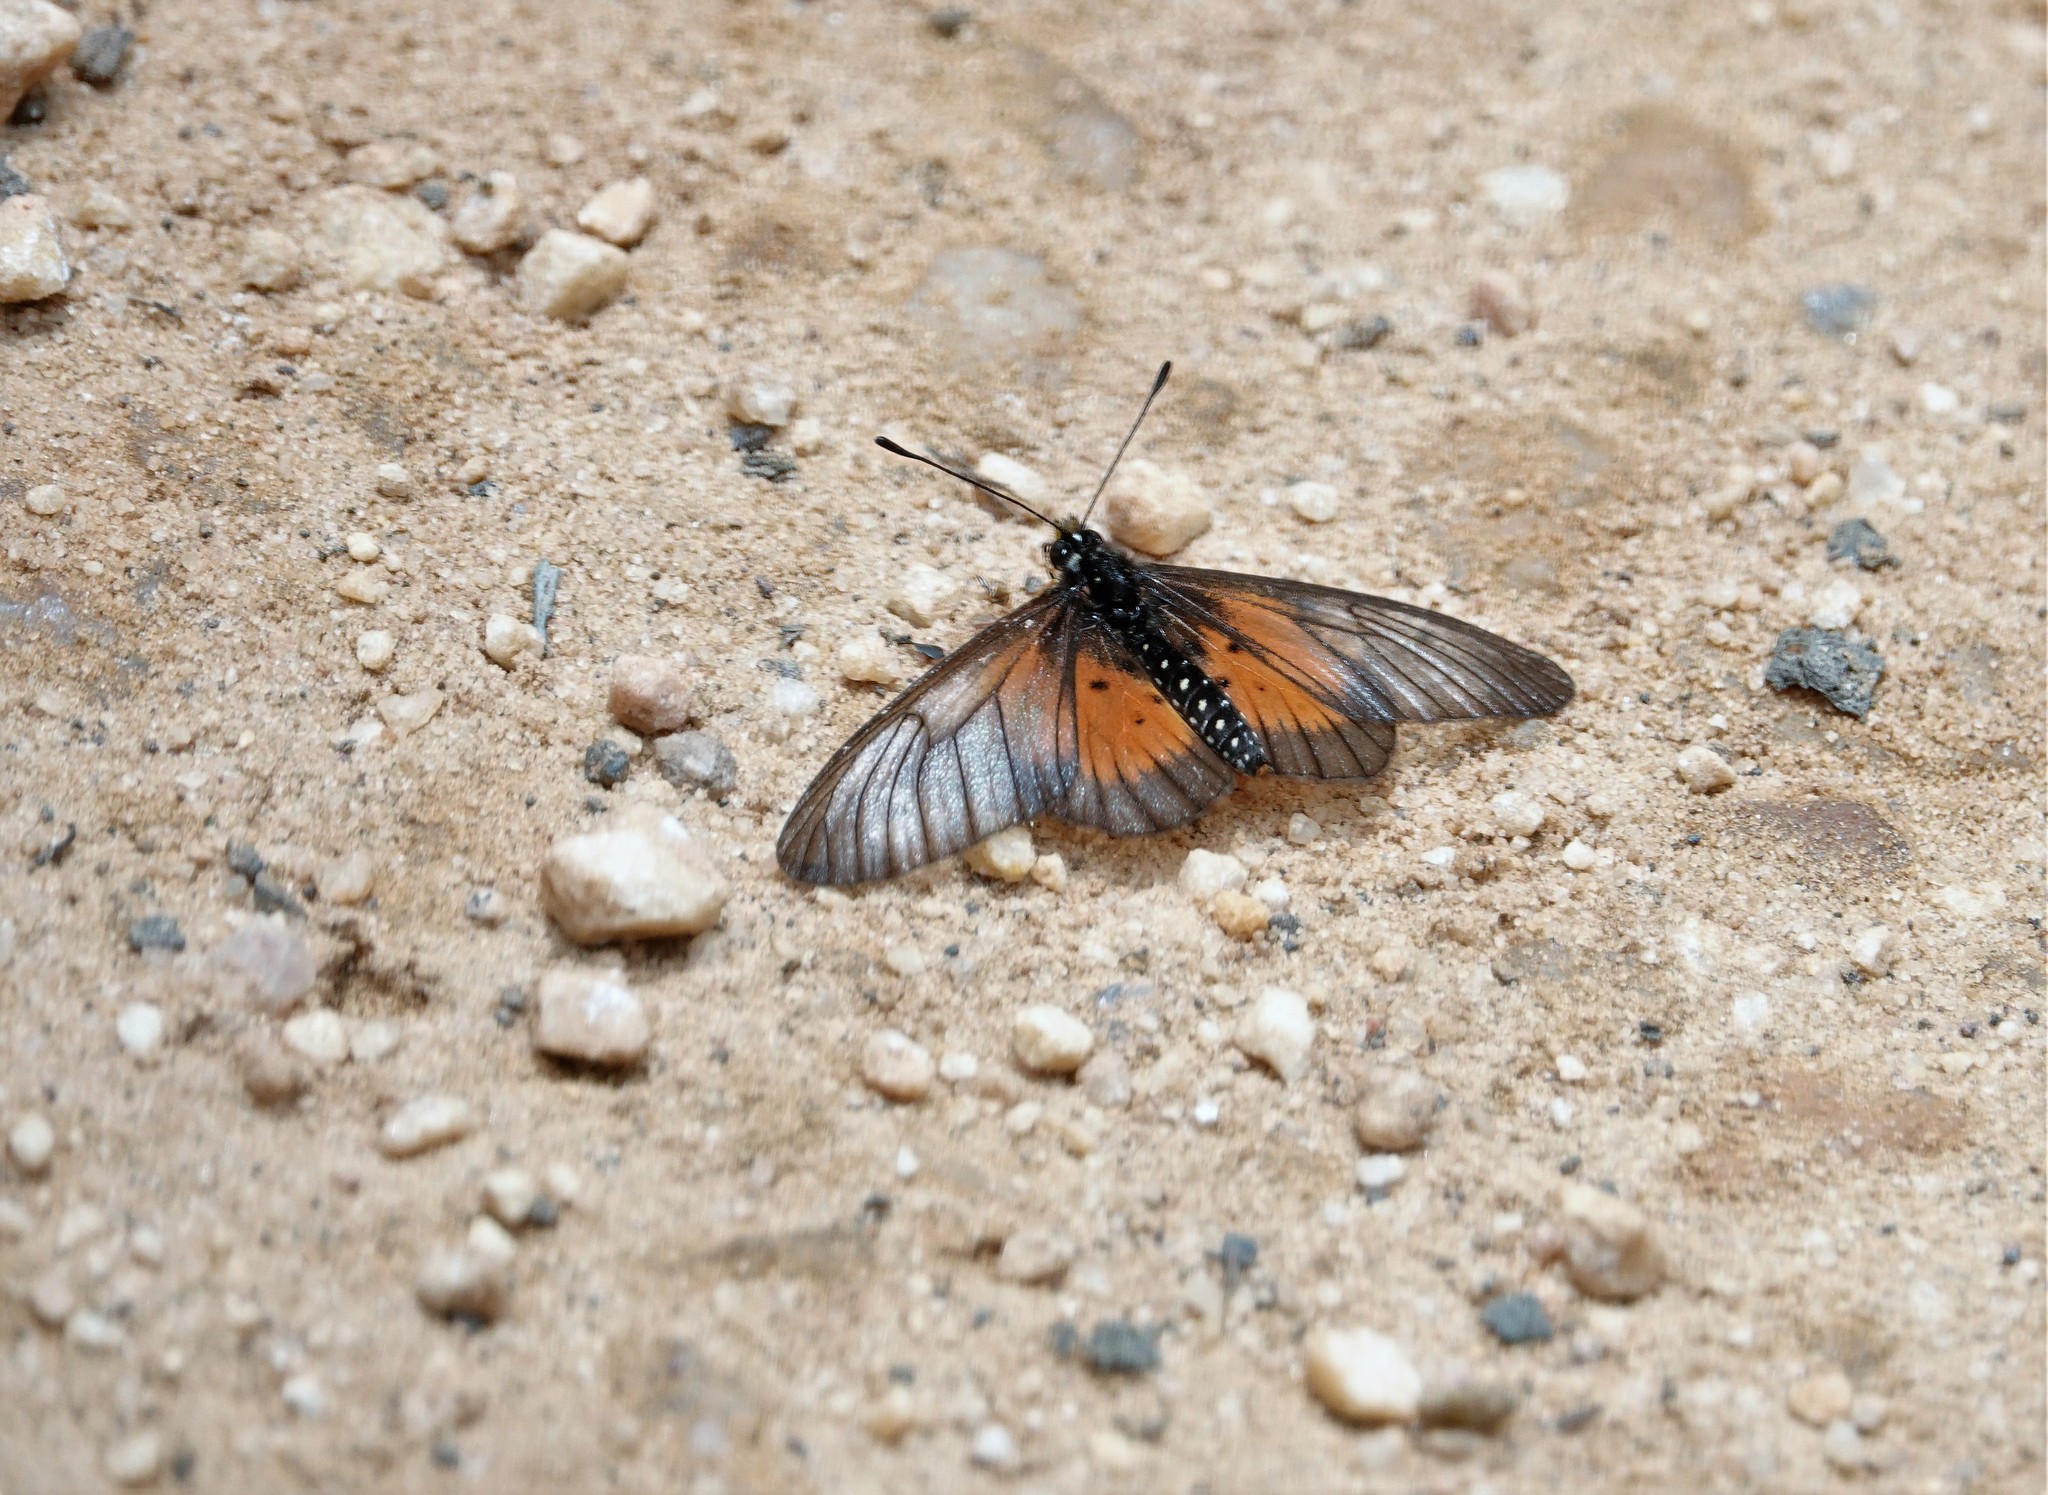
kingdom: Animalia
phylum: Arthropoda
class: Insecta
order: Lepidoptera
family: Nymphalidae
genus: Acraea
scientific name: Acraea
